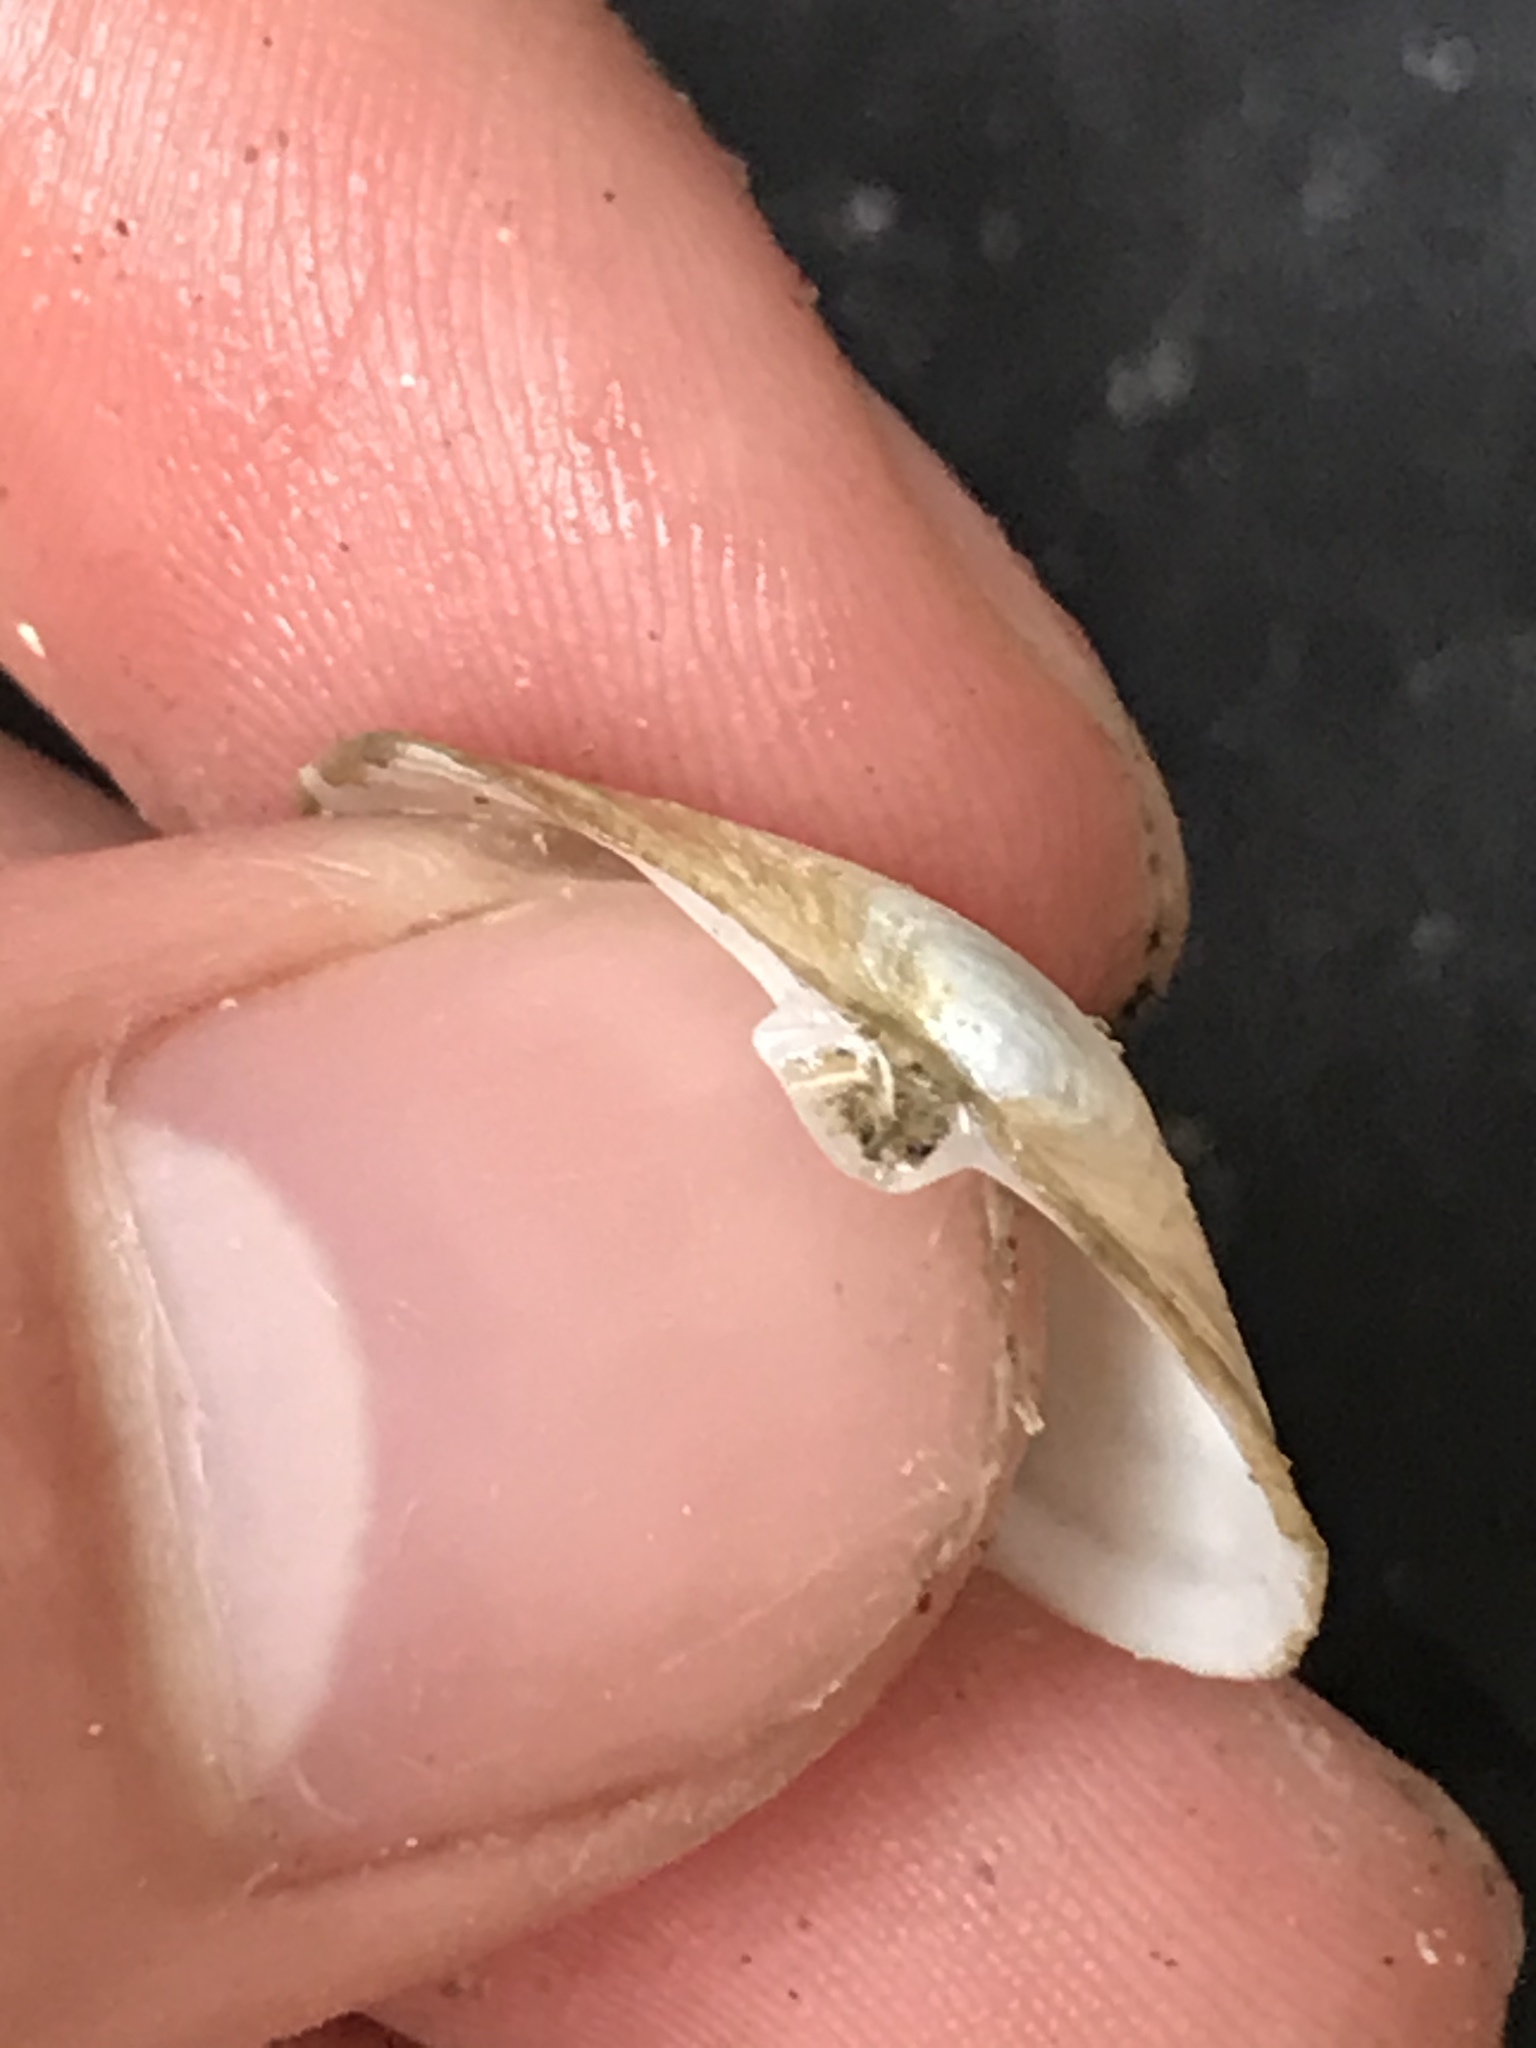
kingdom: Animalia
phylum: Mollusca
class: Bivalvia
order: Myida
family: Myidae
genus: Mya
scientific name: Mya arenaria
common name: Soft-shelled clam
